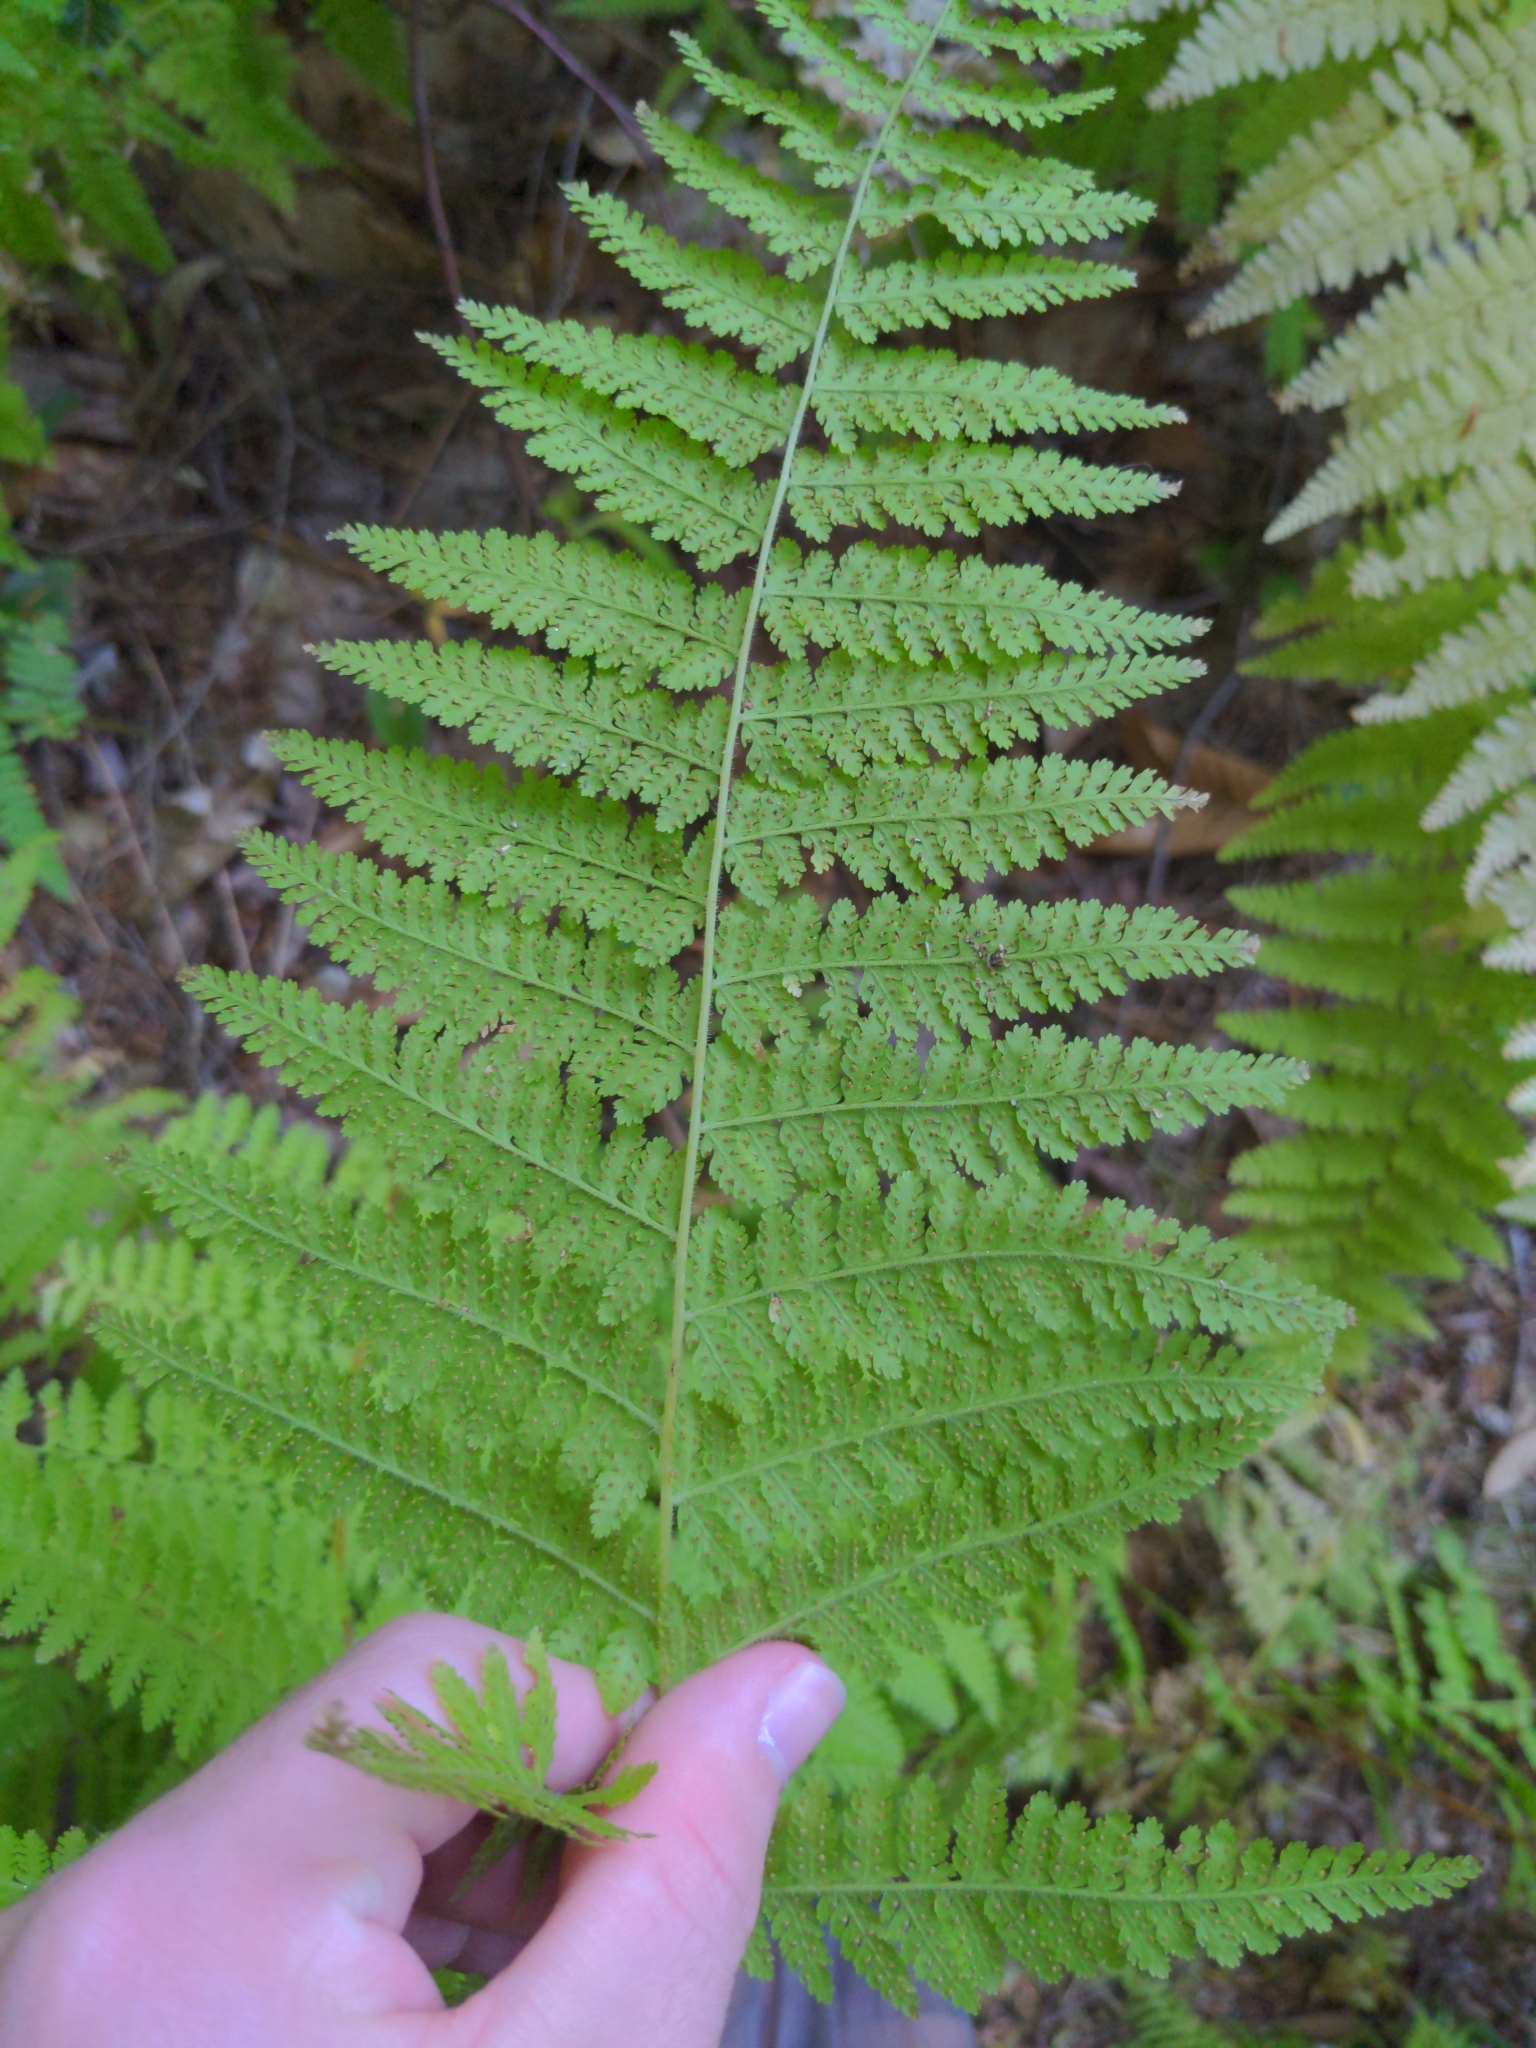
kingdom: Plantae
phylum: Tracheophyta
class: Polypodiopsida
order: Polypodiales
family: Dennstaedtiaceae
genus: Sitobolium
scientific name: Sitobolium punctilobum
